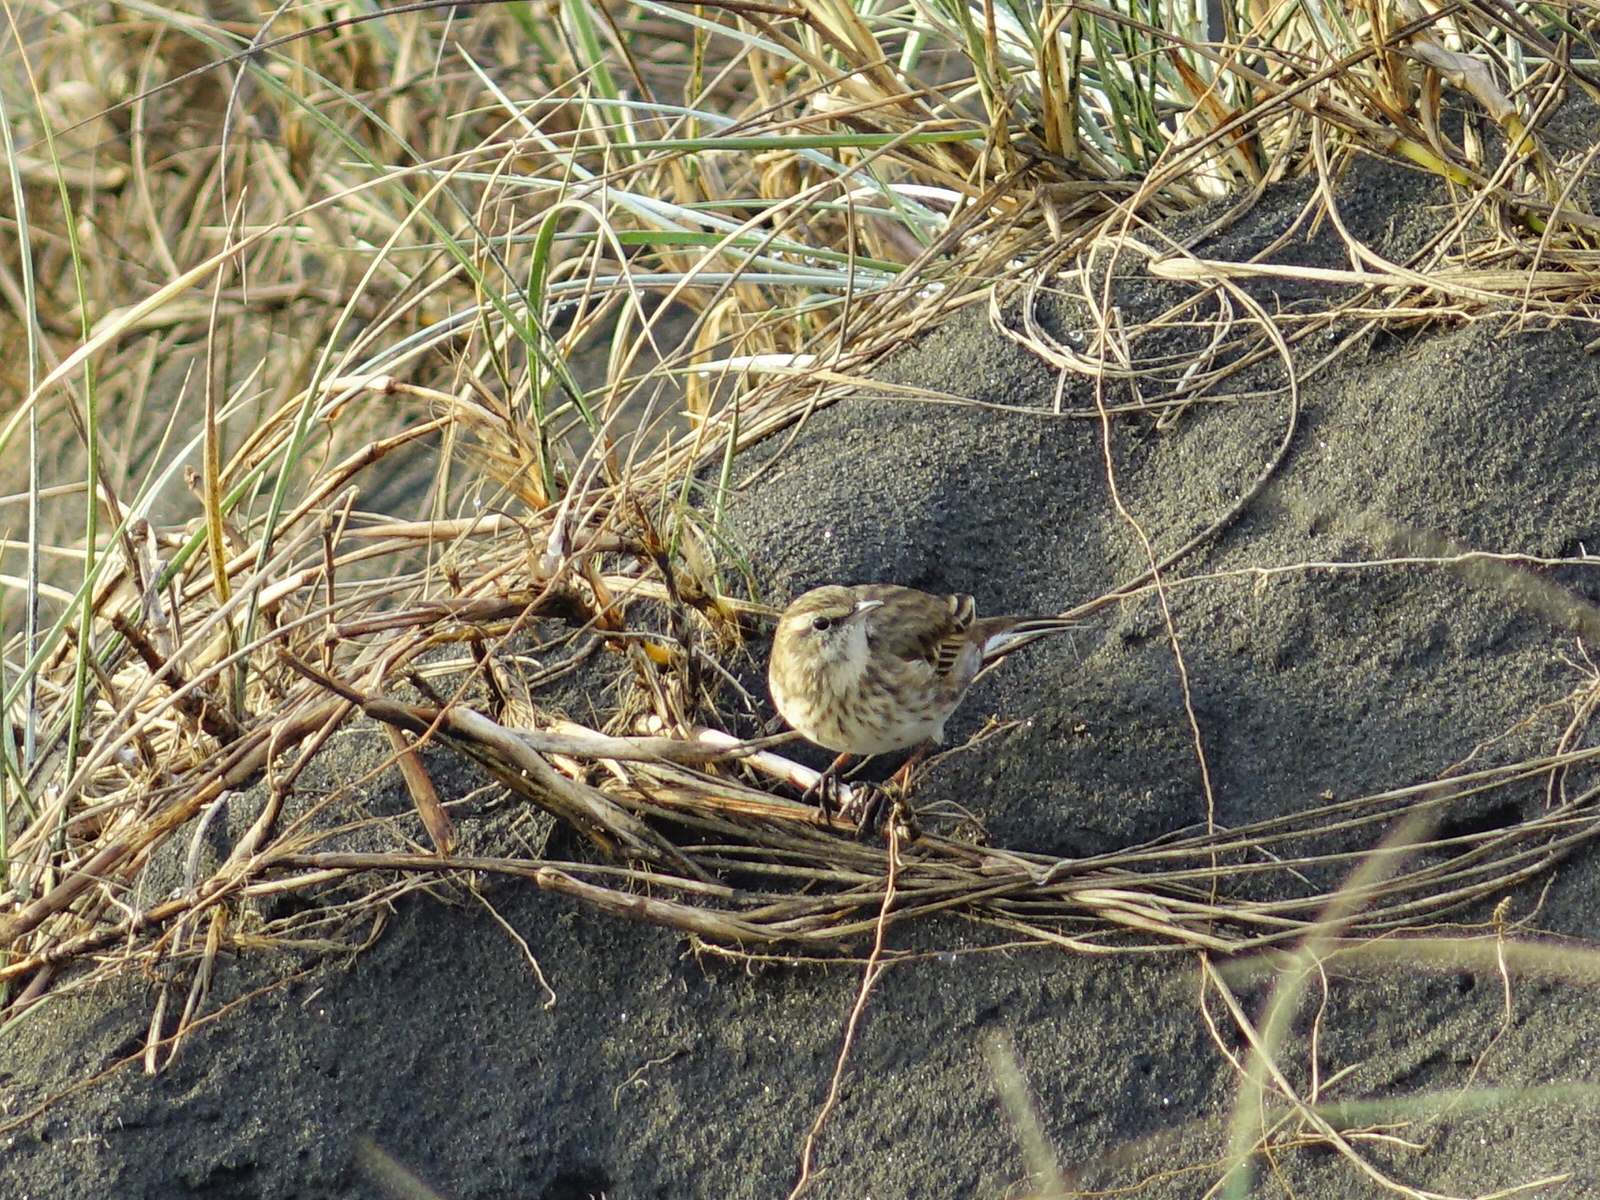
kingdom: Animalia
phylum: Chordata
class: Aves
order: Passeriformes
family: Motacillidae
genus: Anthus
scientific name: Anthus novaeseelandiae
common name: New zealand pipit
